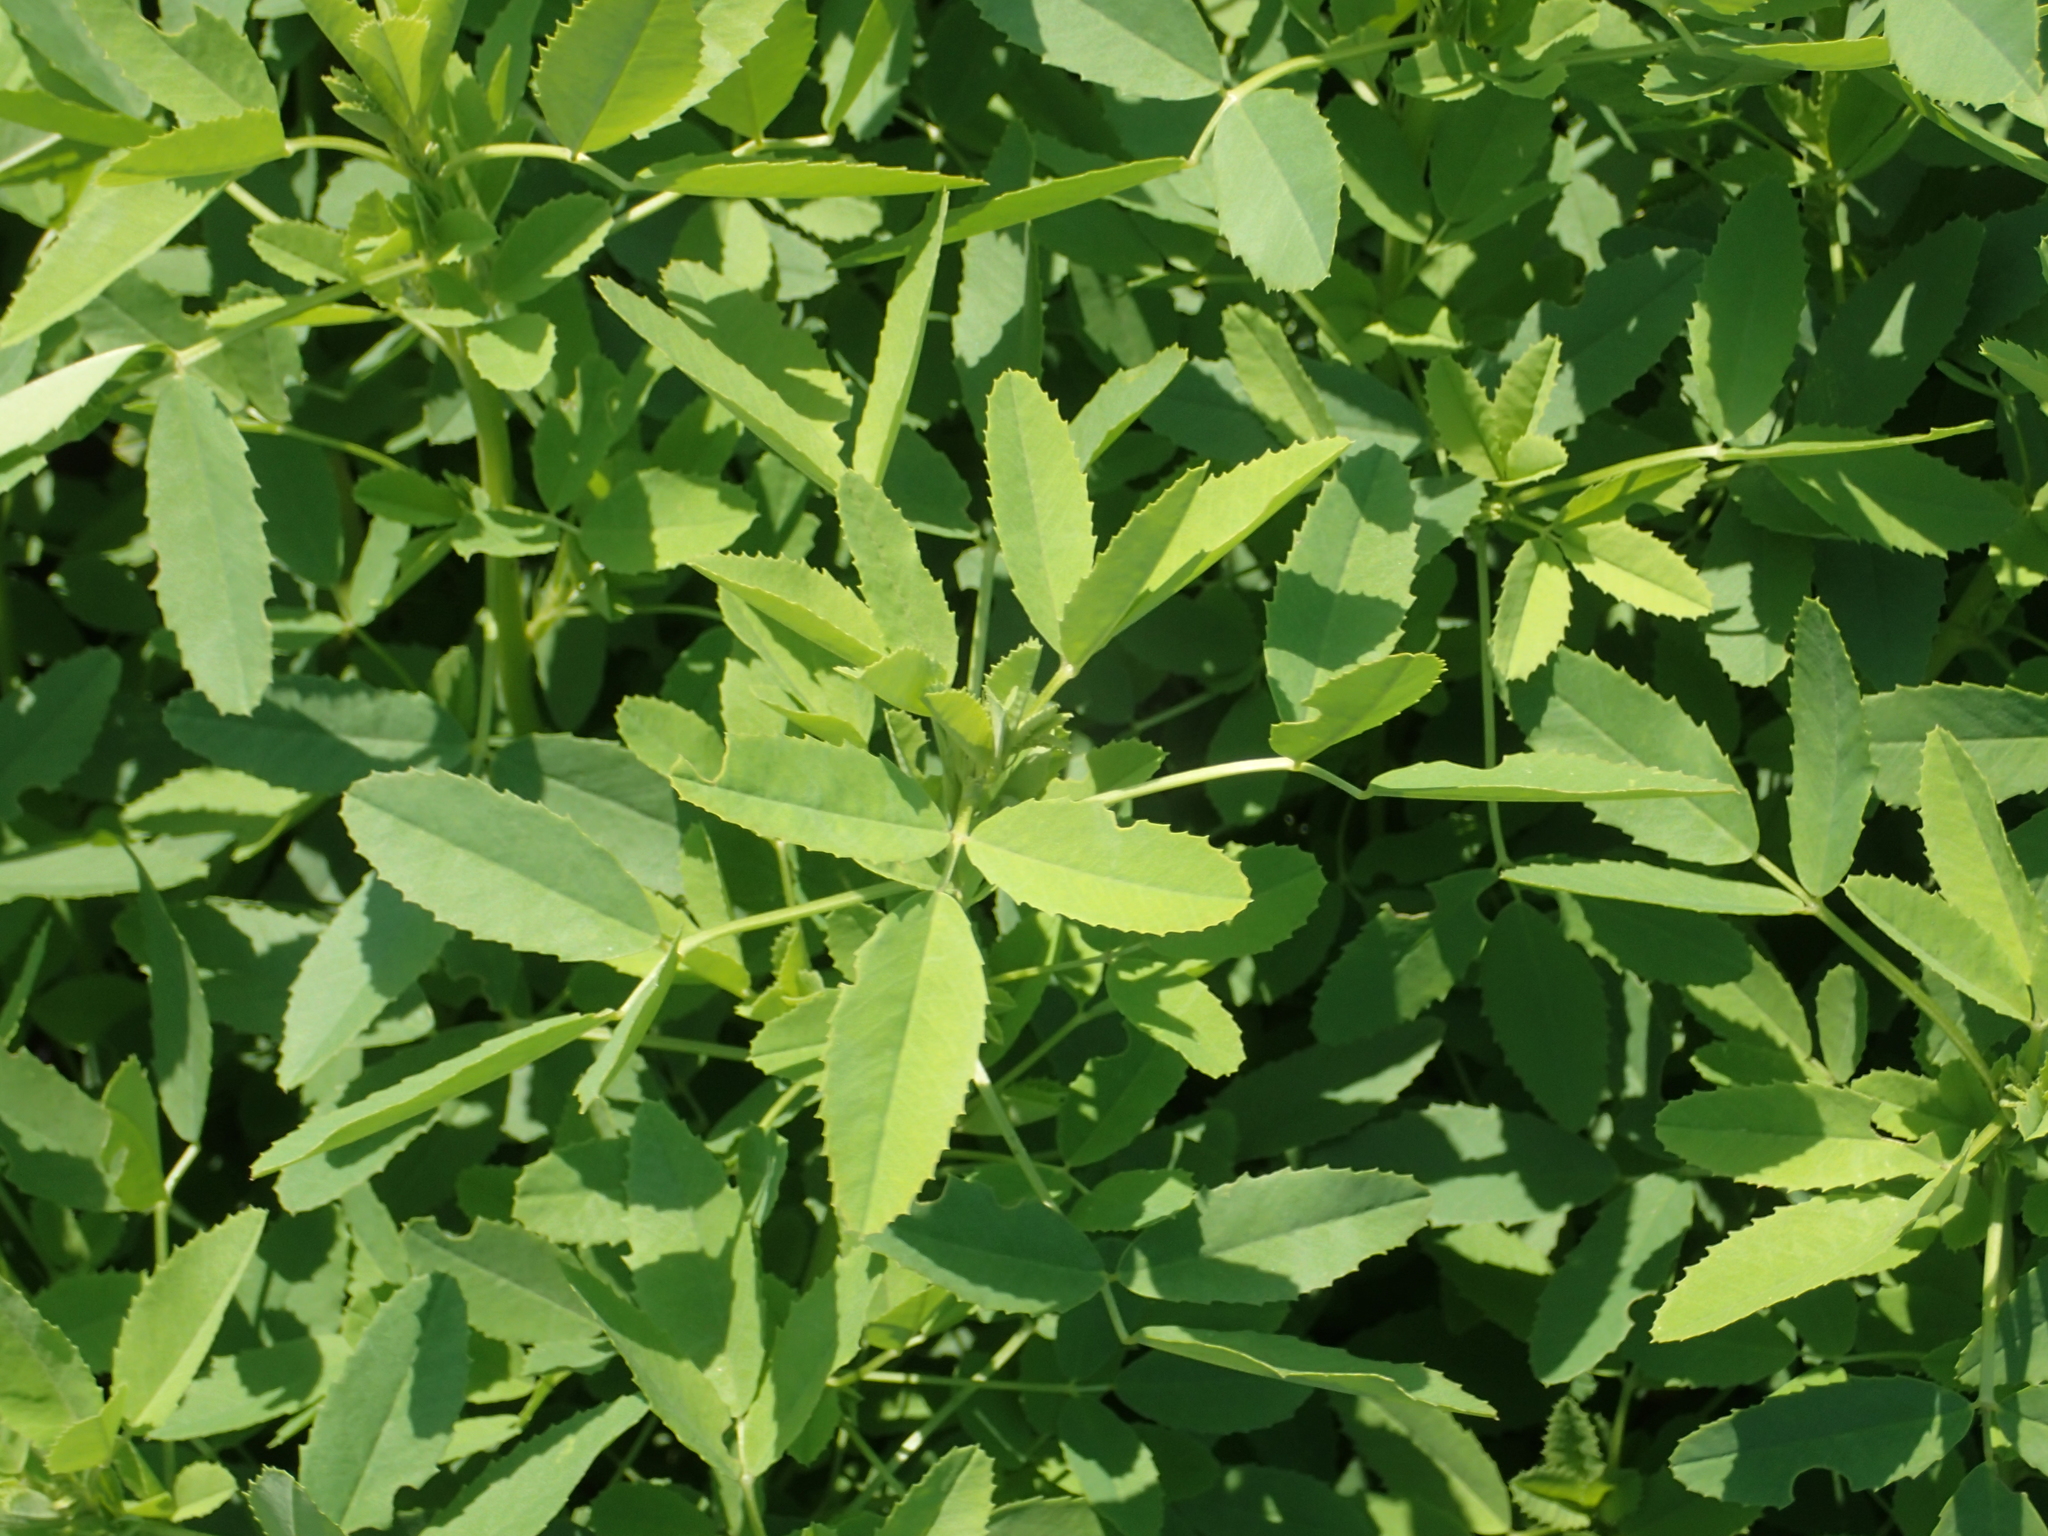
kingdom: Plantae
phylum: Tracheophyta
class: Magnoliopsida
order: Fabales
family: Fabaceae
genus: Melilotus
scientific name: Melilotus indicus
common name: Small melilot
